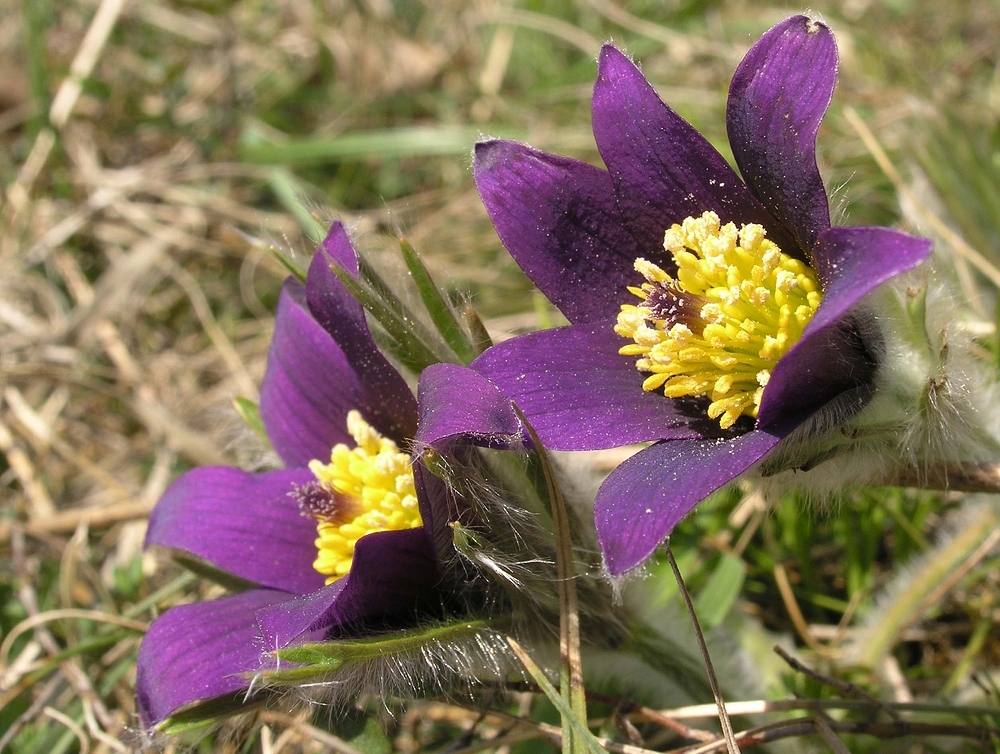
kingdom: Plantae
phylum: Tracheophyta
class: Magnoliopsida
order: Ranunculales
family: Ranunculaceae
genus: Pulsatilla
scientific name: Pulsatilla vulgaris
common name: Pasqueflower
